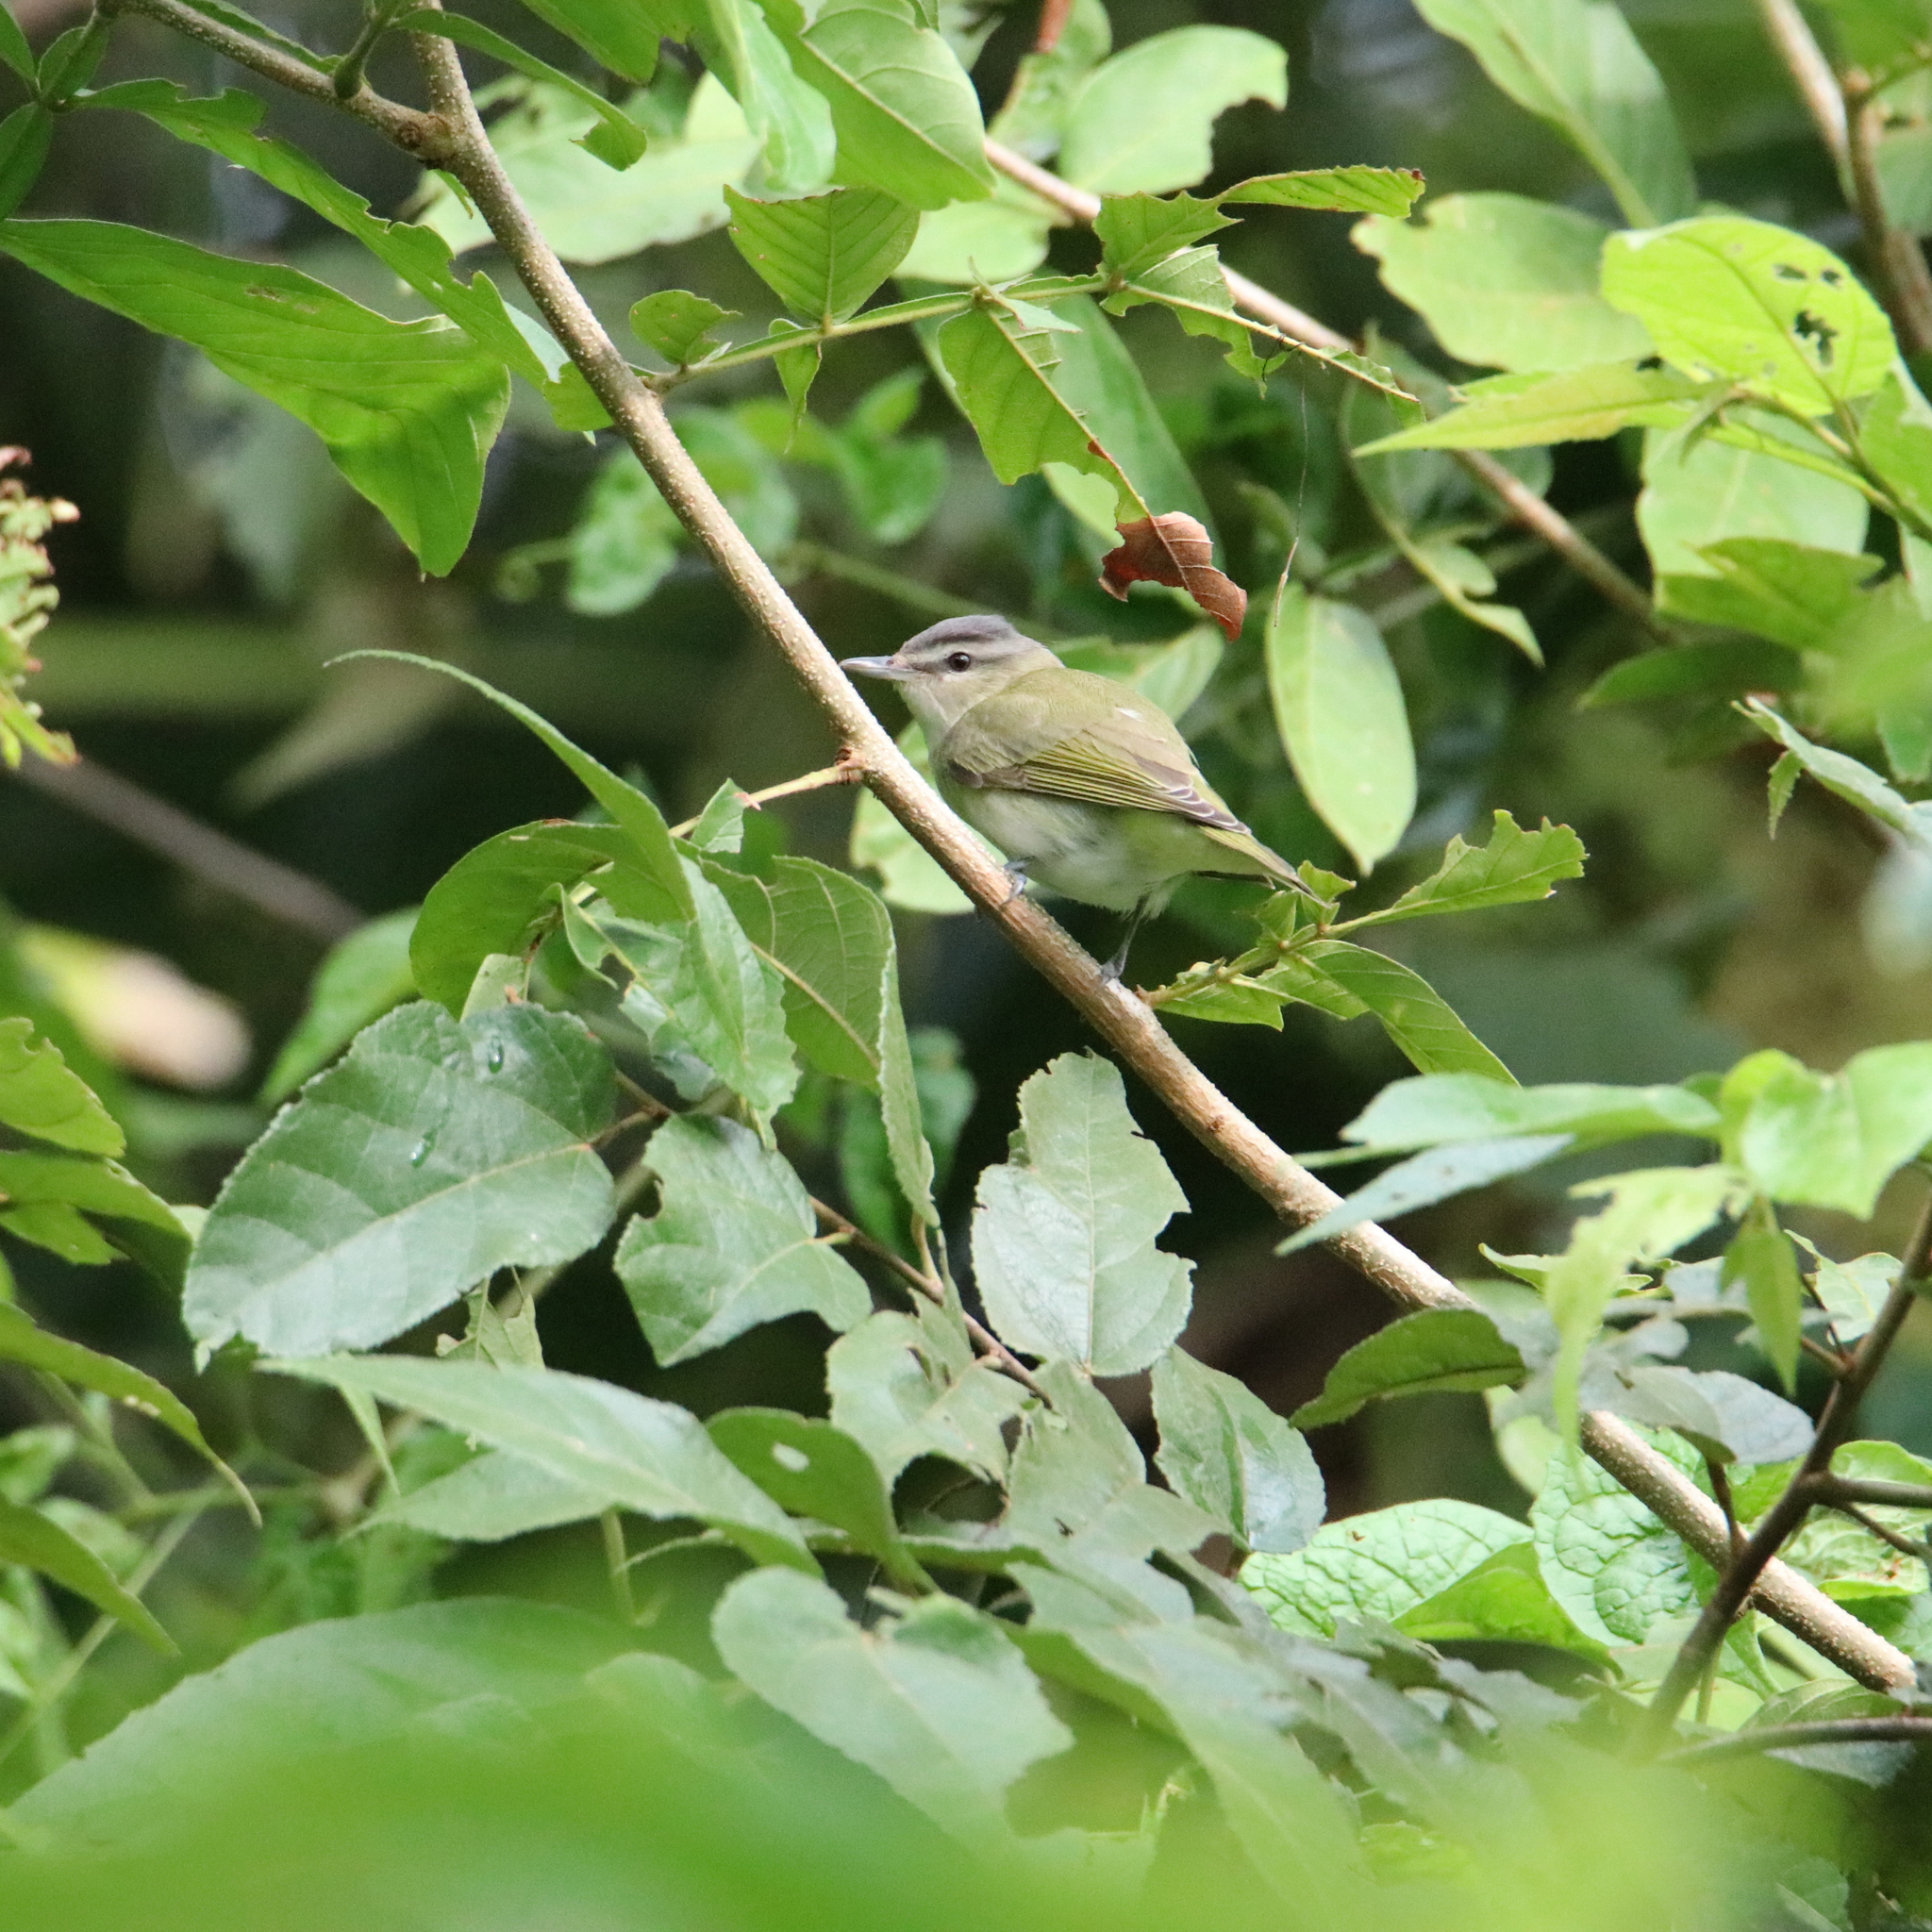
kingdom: Animalia
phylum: Chordata
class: Aves
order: Passeriformes
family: Vireonidae
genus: Vireo
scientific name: Vireo olivaceus
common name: Red-eyed vireo
